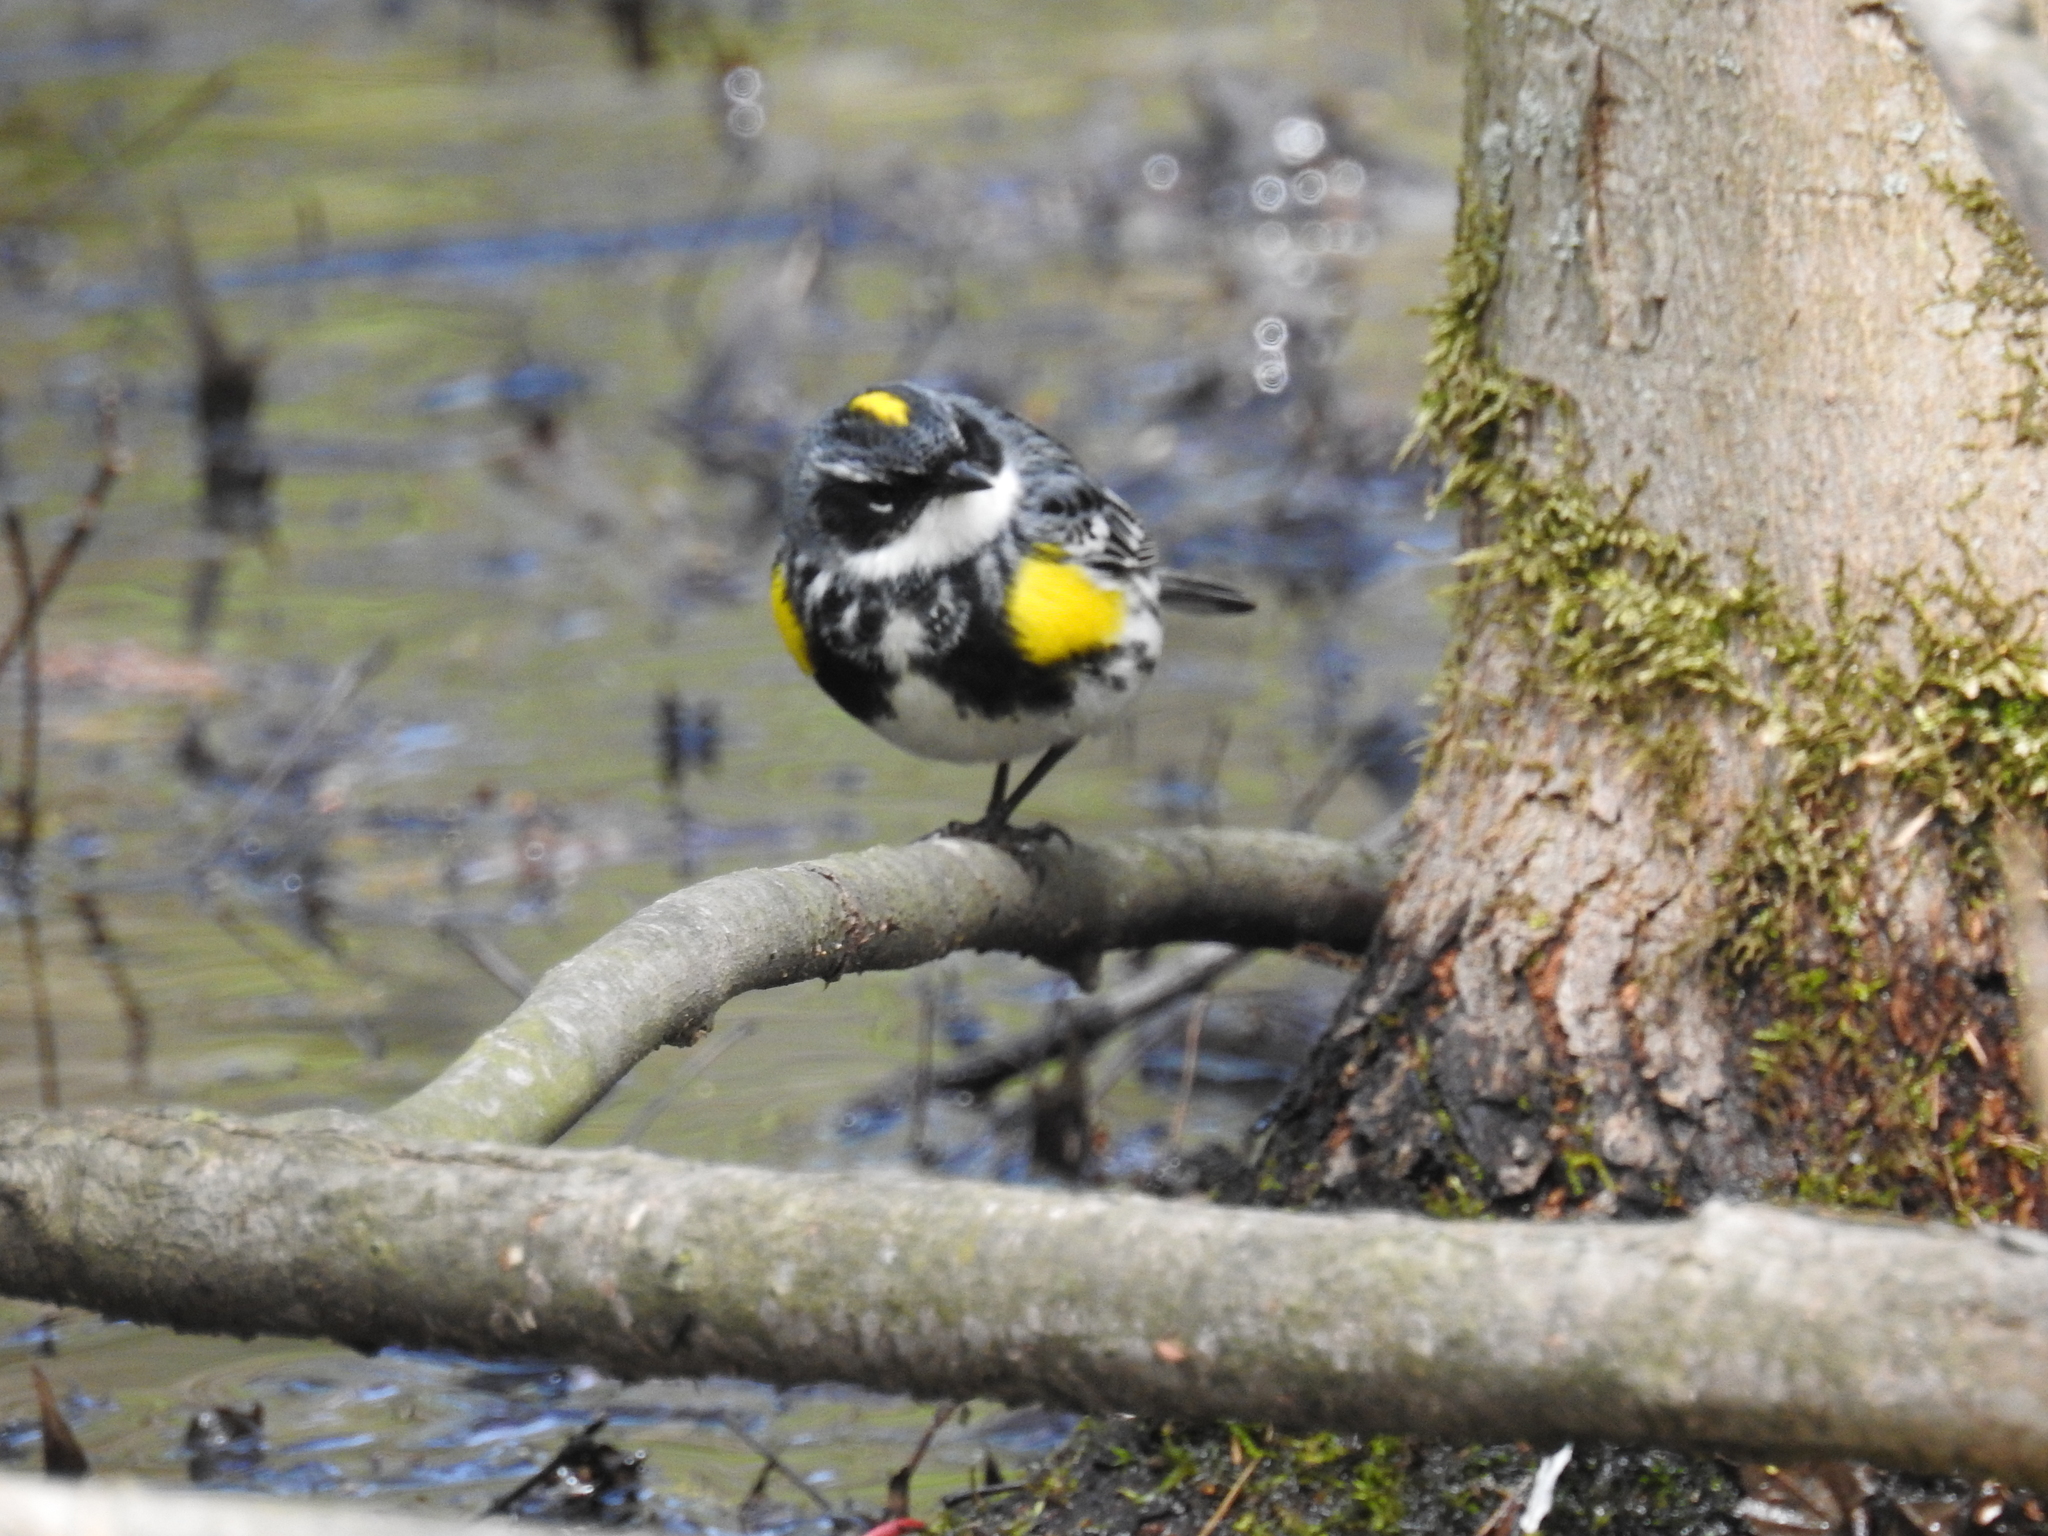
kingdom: Animalia
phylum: Chordata
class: Aves
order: Passeriformes
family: Parulidae
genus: Setophaga
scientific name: Setophaga coronata
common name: Myrtle warbler
